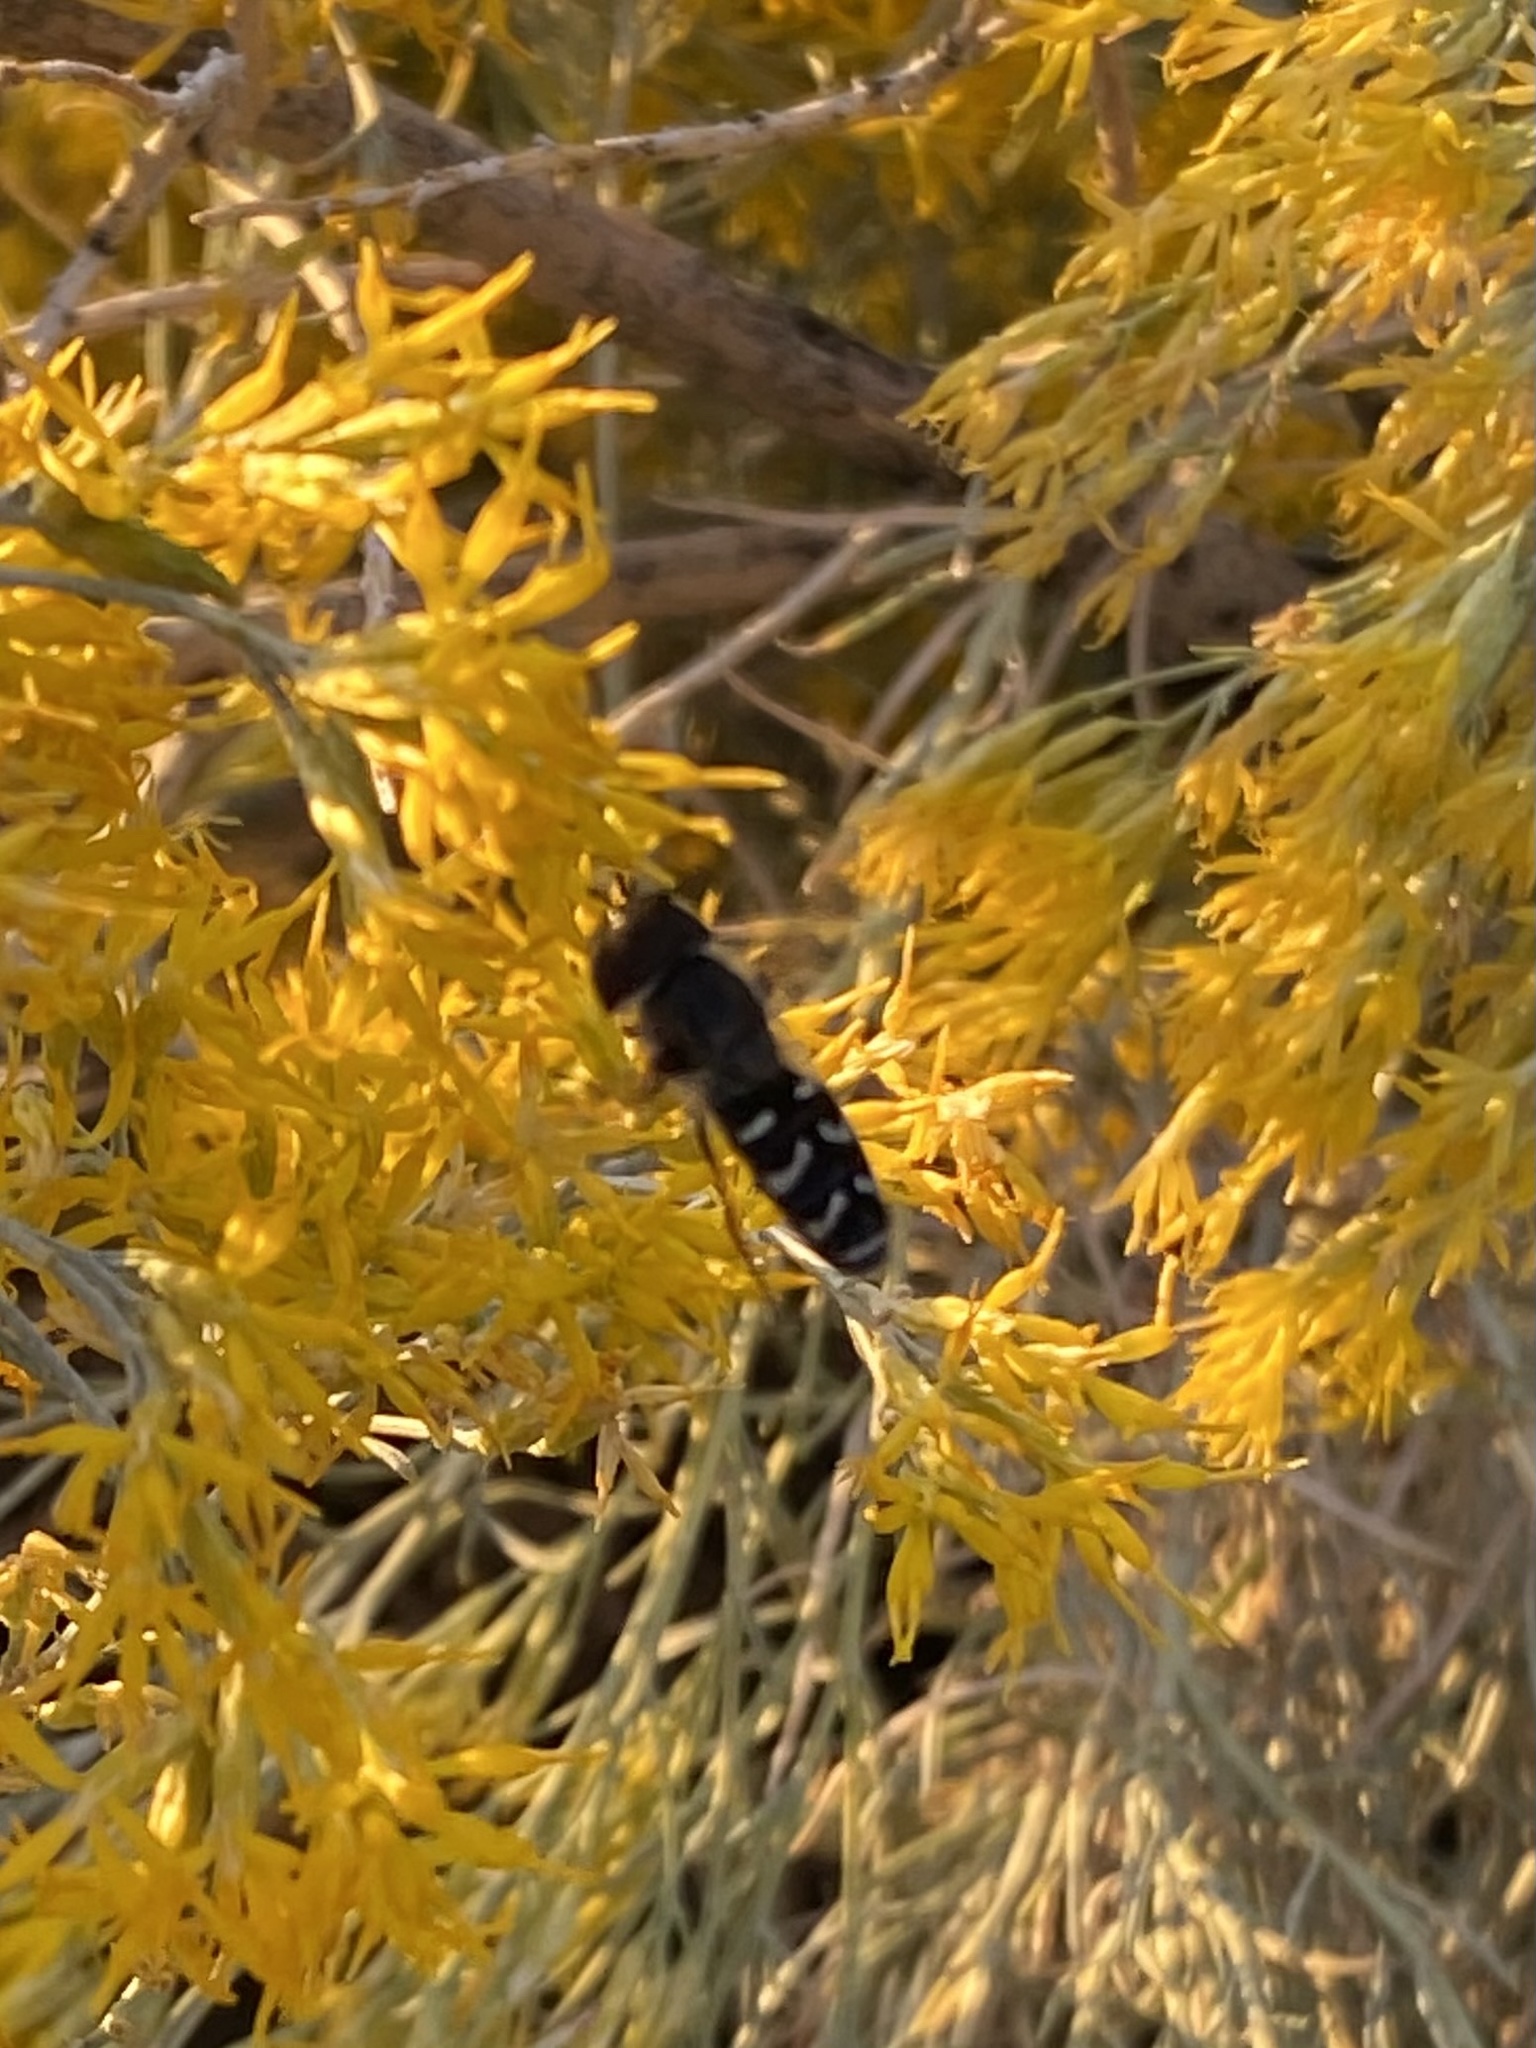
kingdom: Animalia
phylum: Arthropoda
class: Insecta
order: Diptera
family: Syrphidae
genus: Scaeva
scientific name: Scaeva affinis
